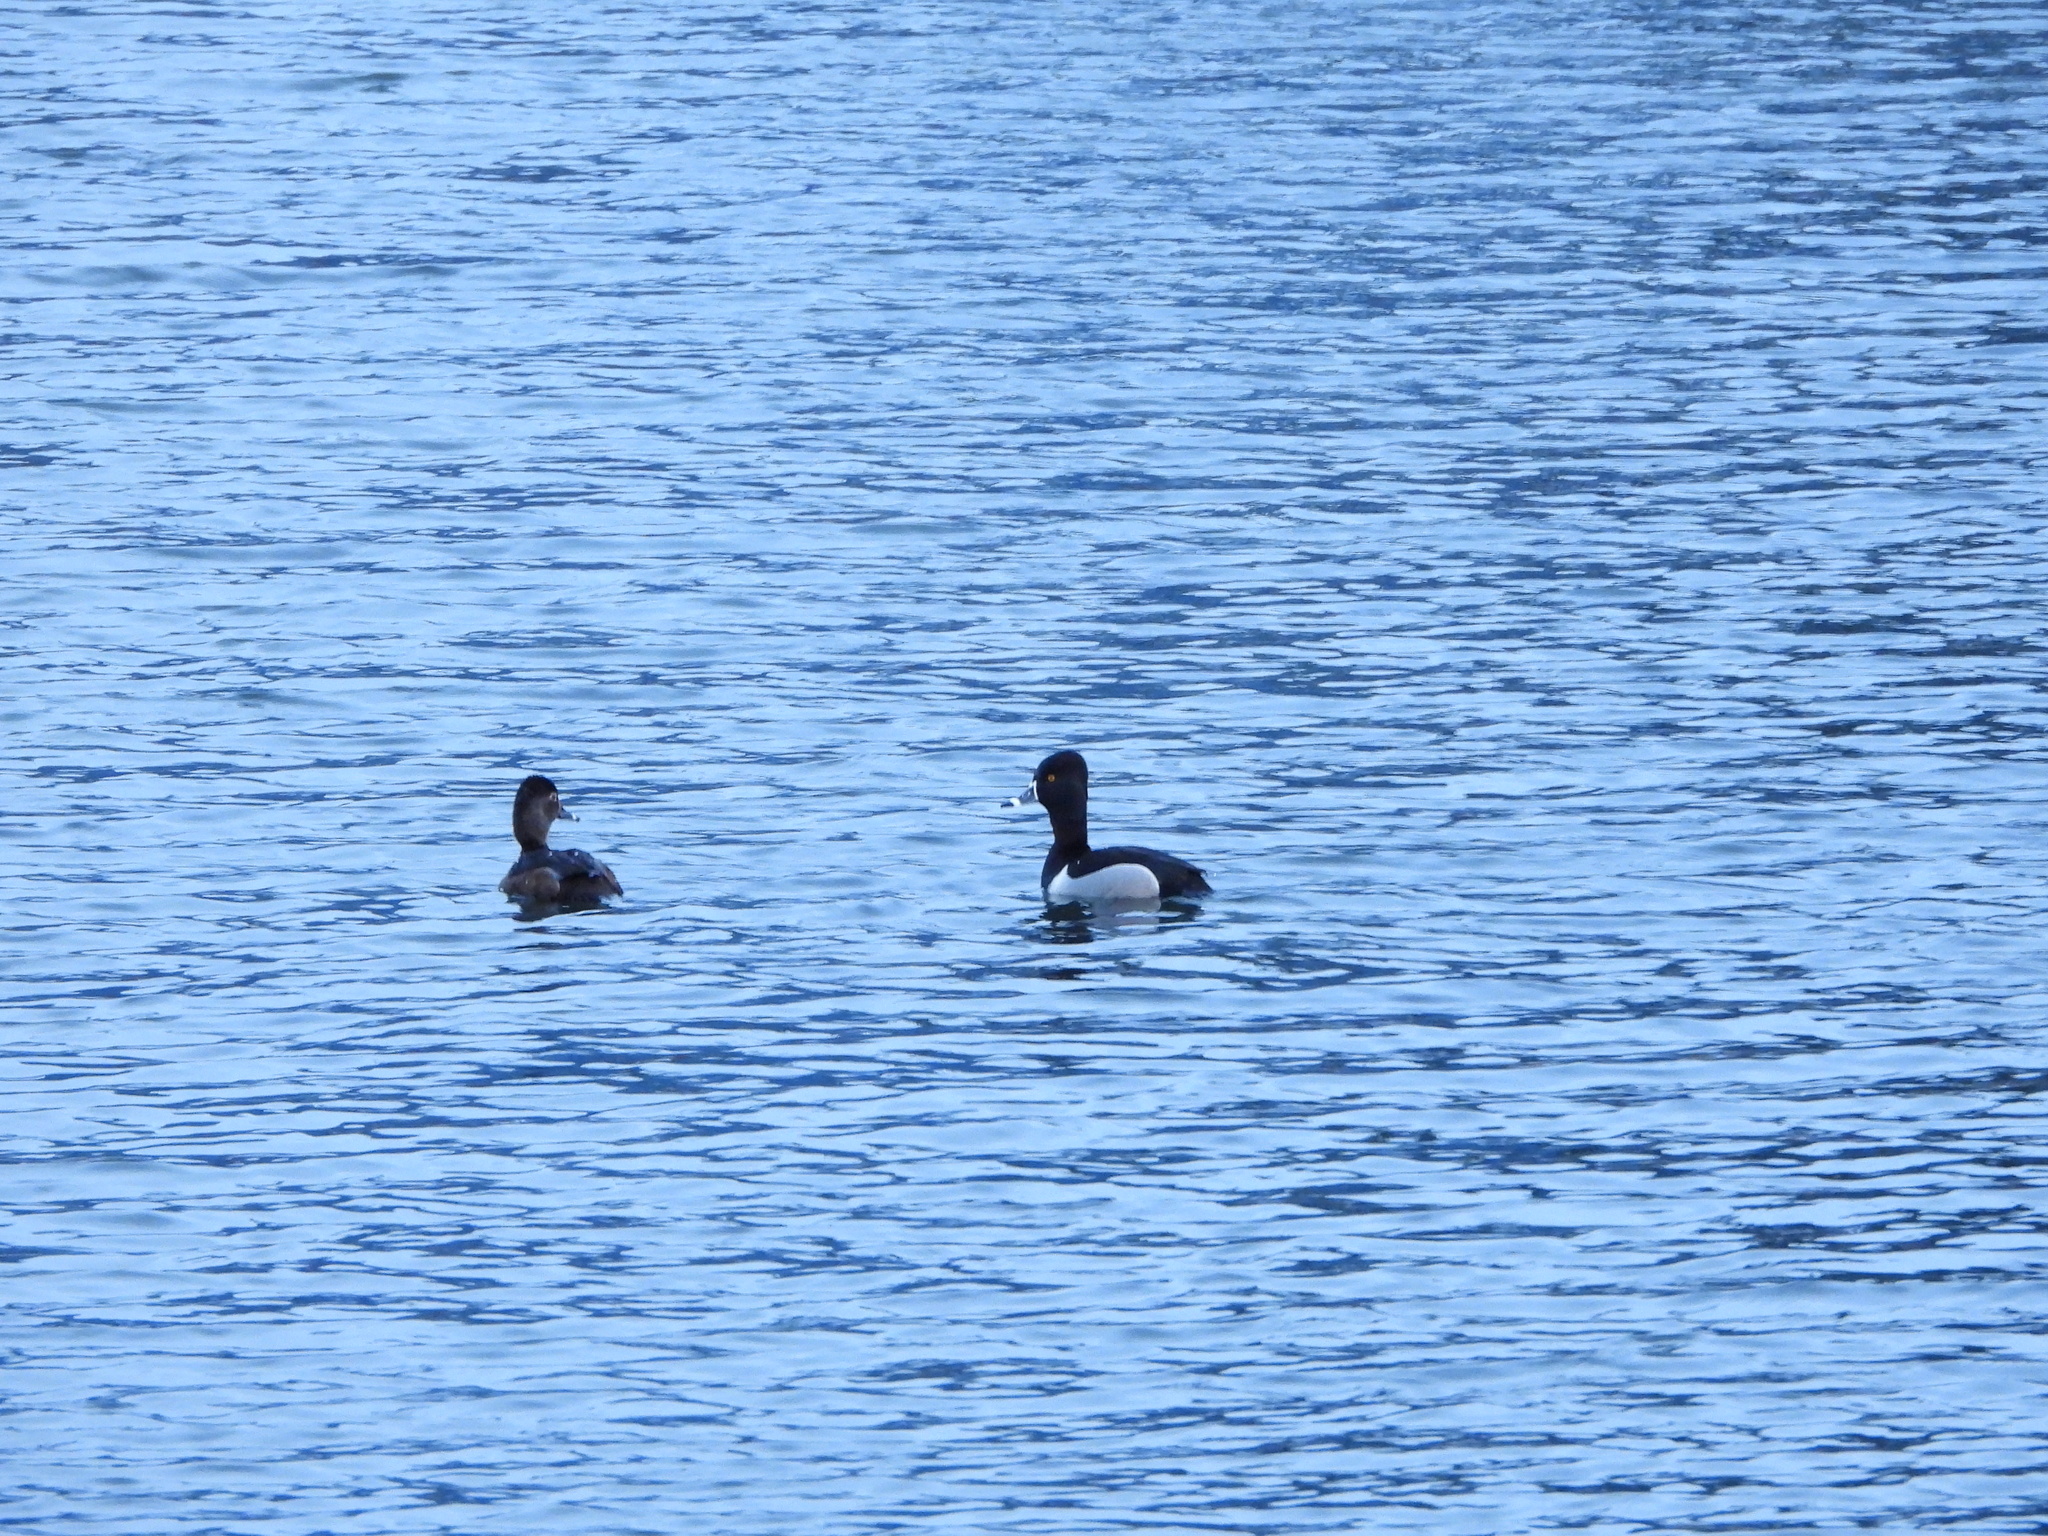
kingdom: Animalia
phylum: Chordata
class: Aves
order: Anseriformes
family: Anatidae
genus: Aythya
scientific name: Aythya collaris
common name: Ring-necked duck
